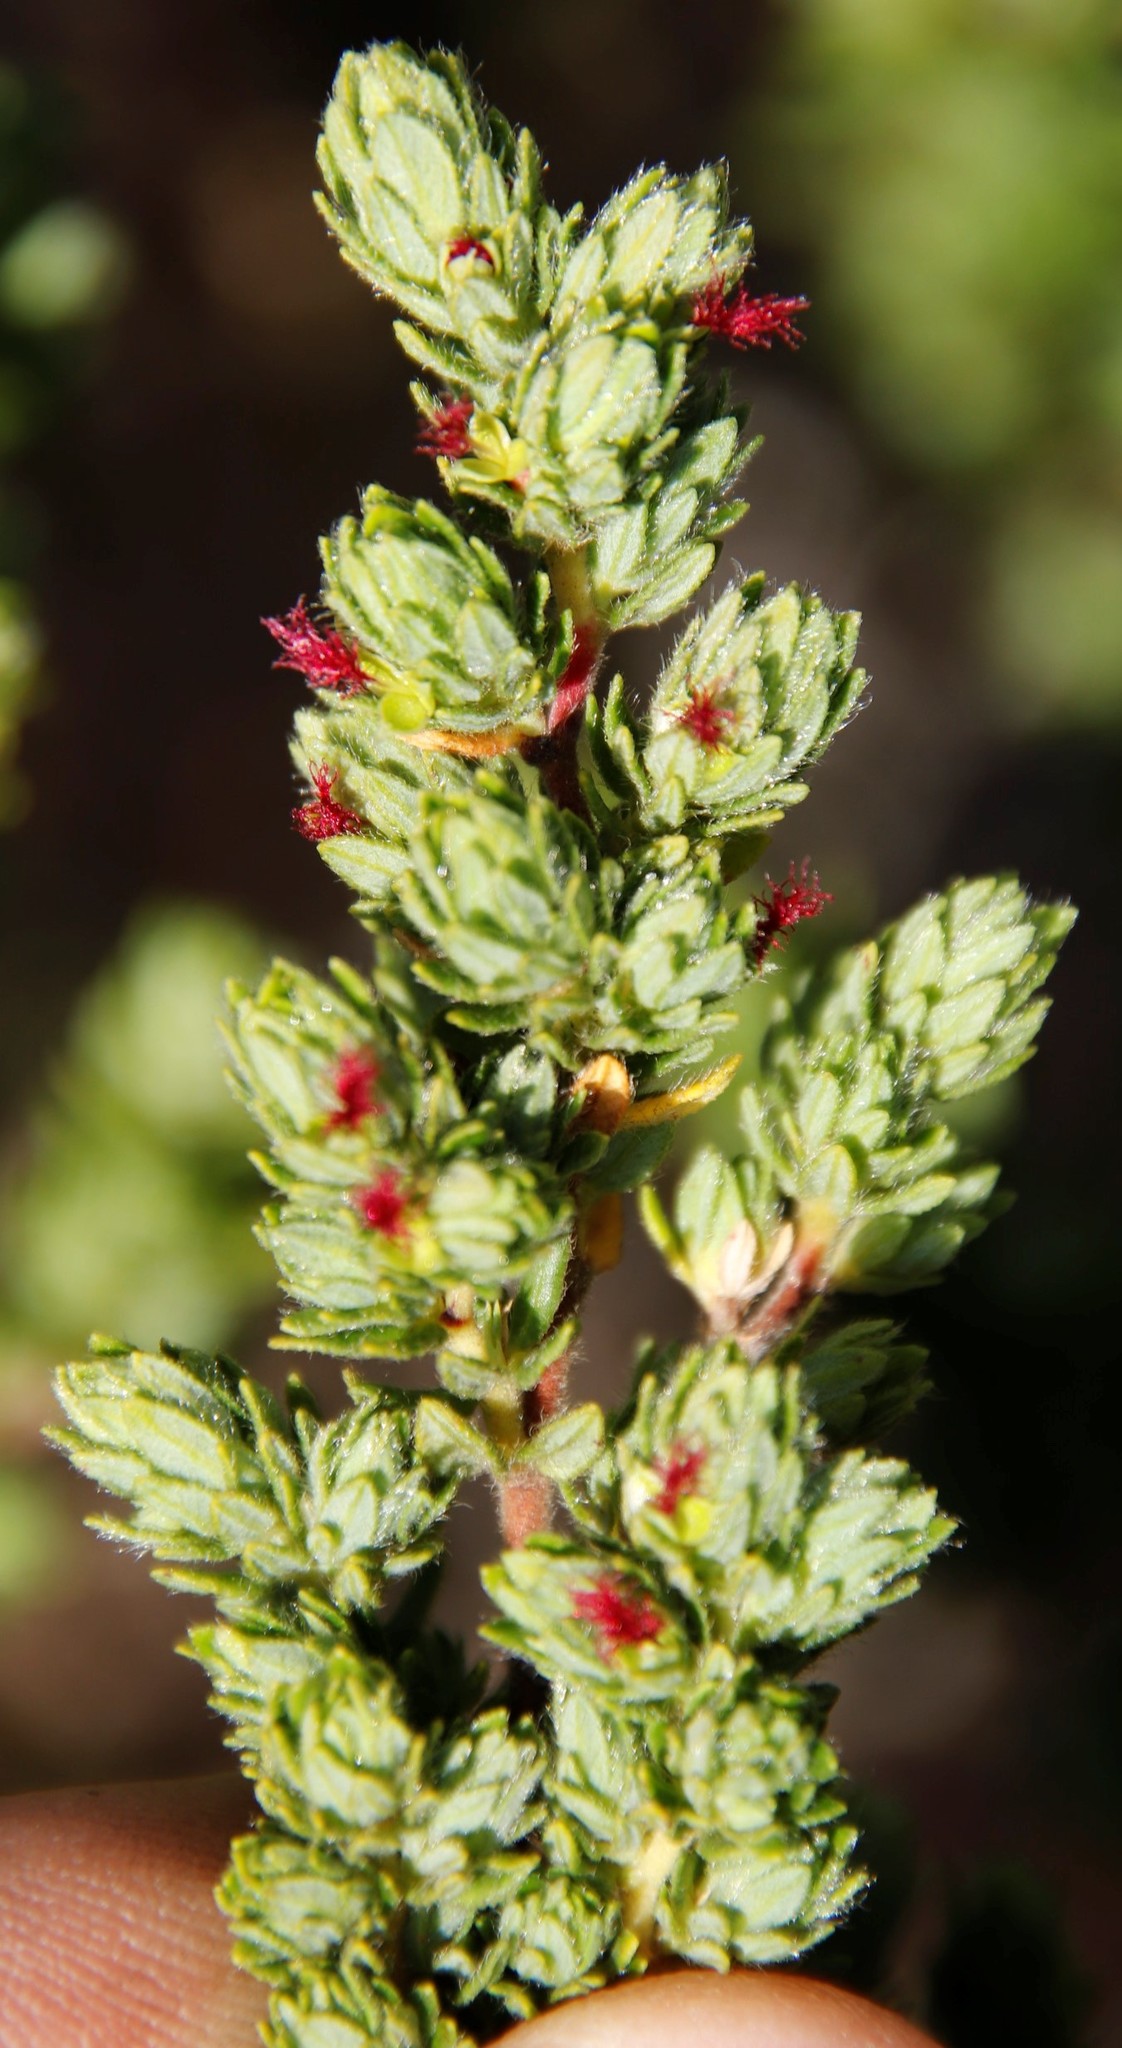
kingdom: Plantae
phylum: Tracheophyta
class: Magnoliopsida
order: Rosales
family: Rosaceae
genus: Cliffortia
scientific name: Cliffortia polygonifolia
